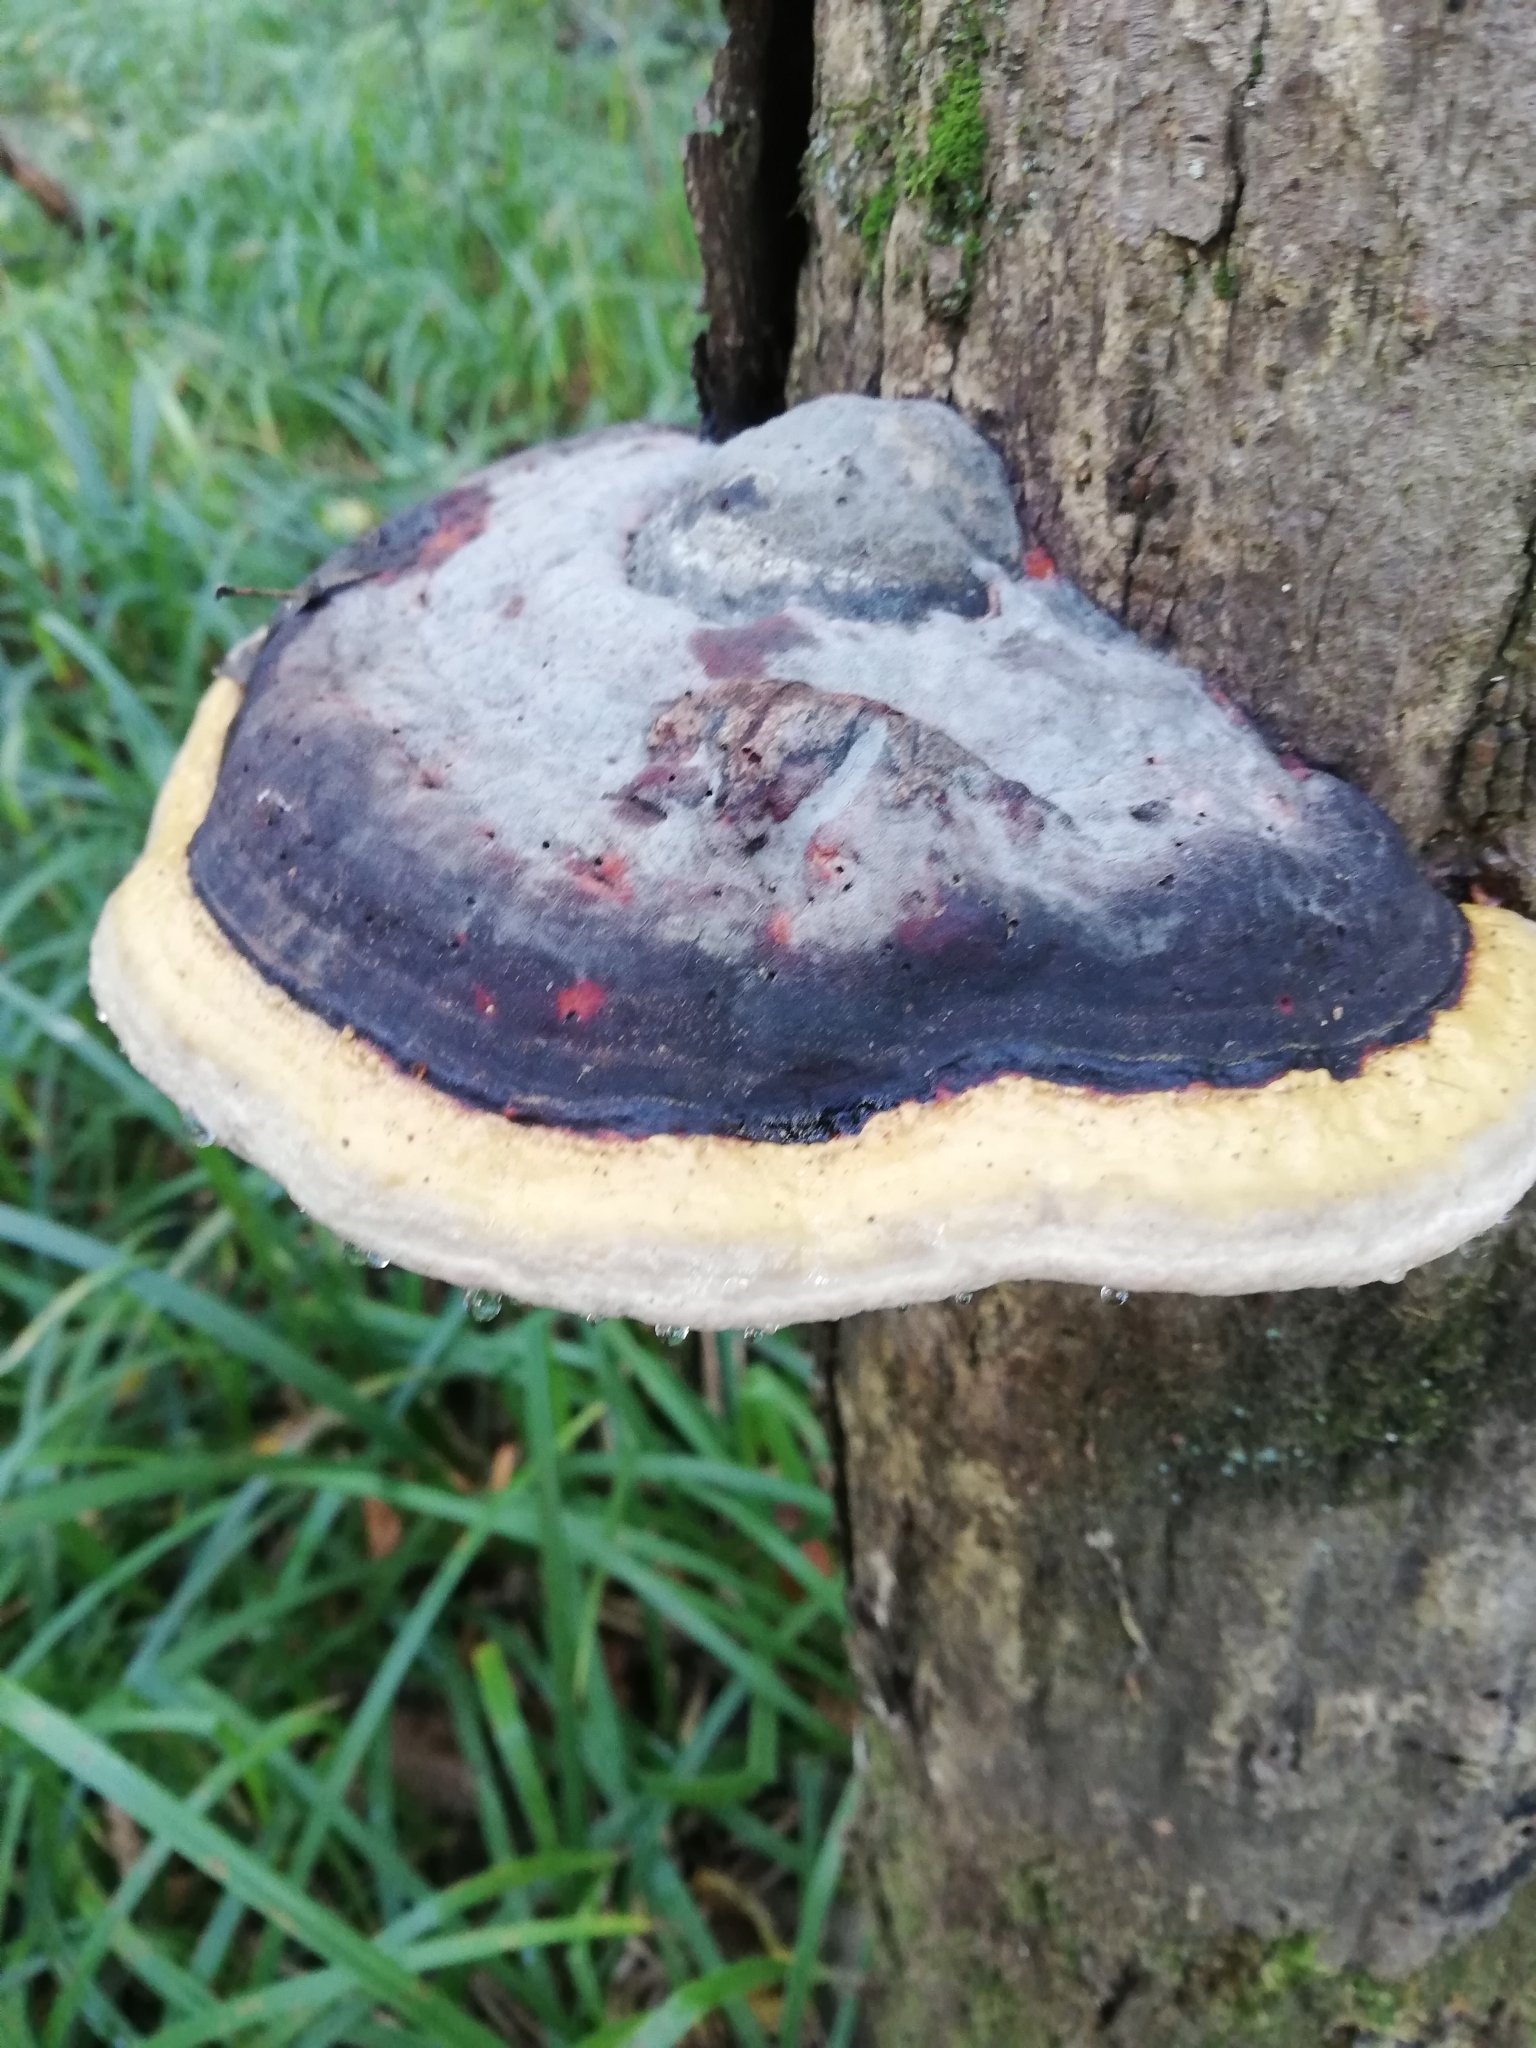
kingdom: Fungi
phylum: Basidiomycota
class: Agaricomycetes
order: Polyporales
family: Fomitopsidaceae
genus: Fomitopsis
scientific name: Fomitopsis pinicola
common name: Red-belted bracket
